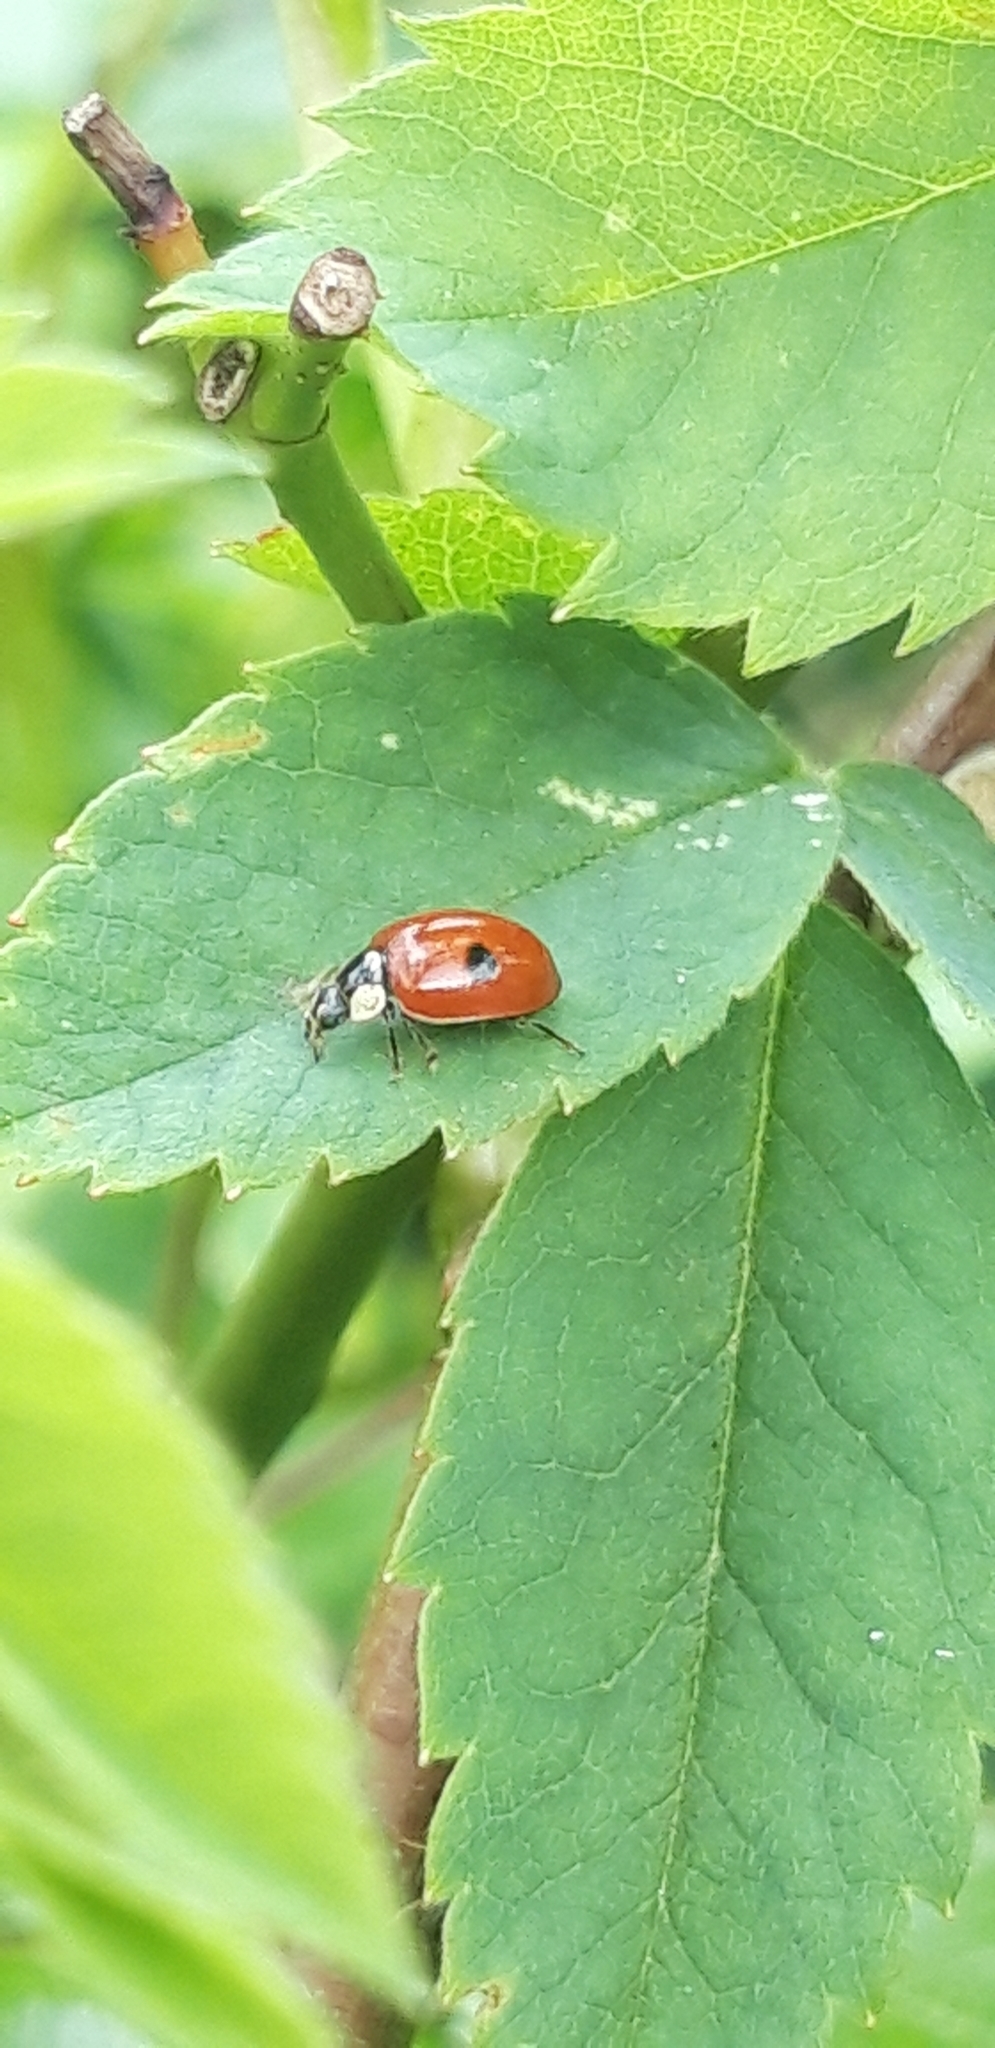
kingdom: Animalia
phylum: Arthropoda
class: Insecta
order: Coleoptera
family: Coccinellidae
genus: Adalia
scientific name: Adalia bipunctata
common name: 2-spot ladybird
